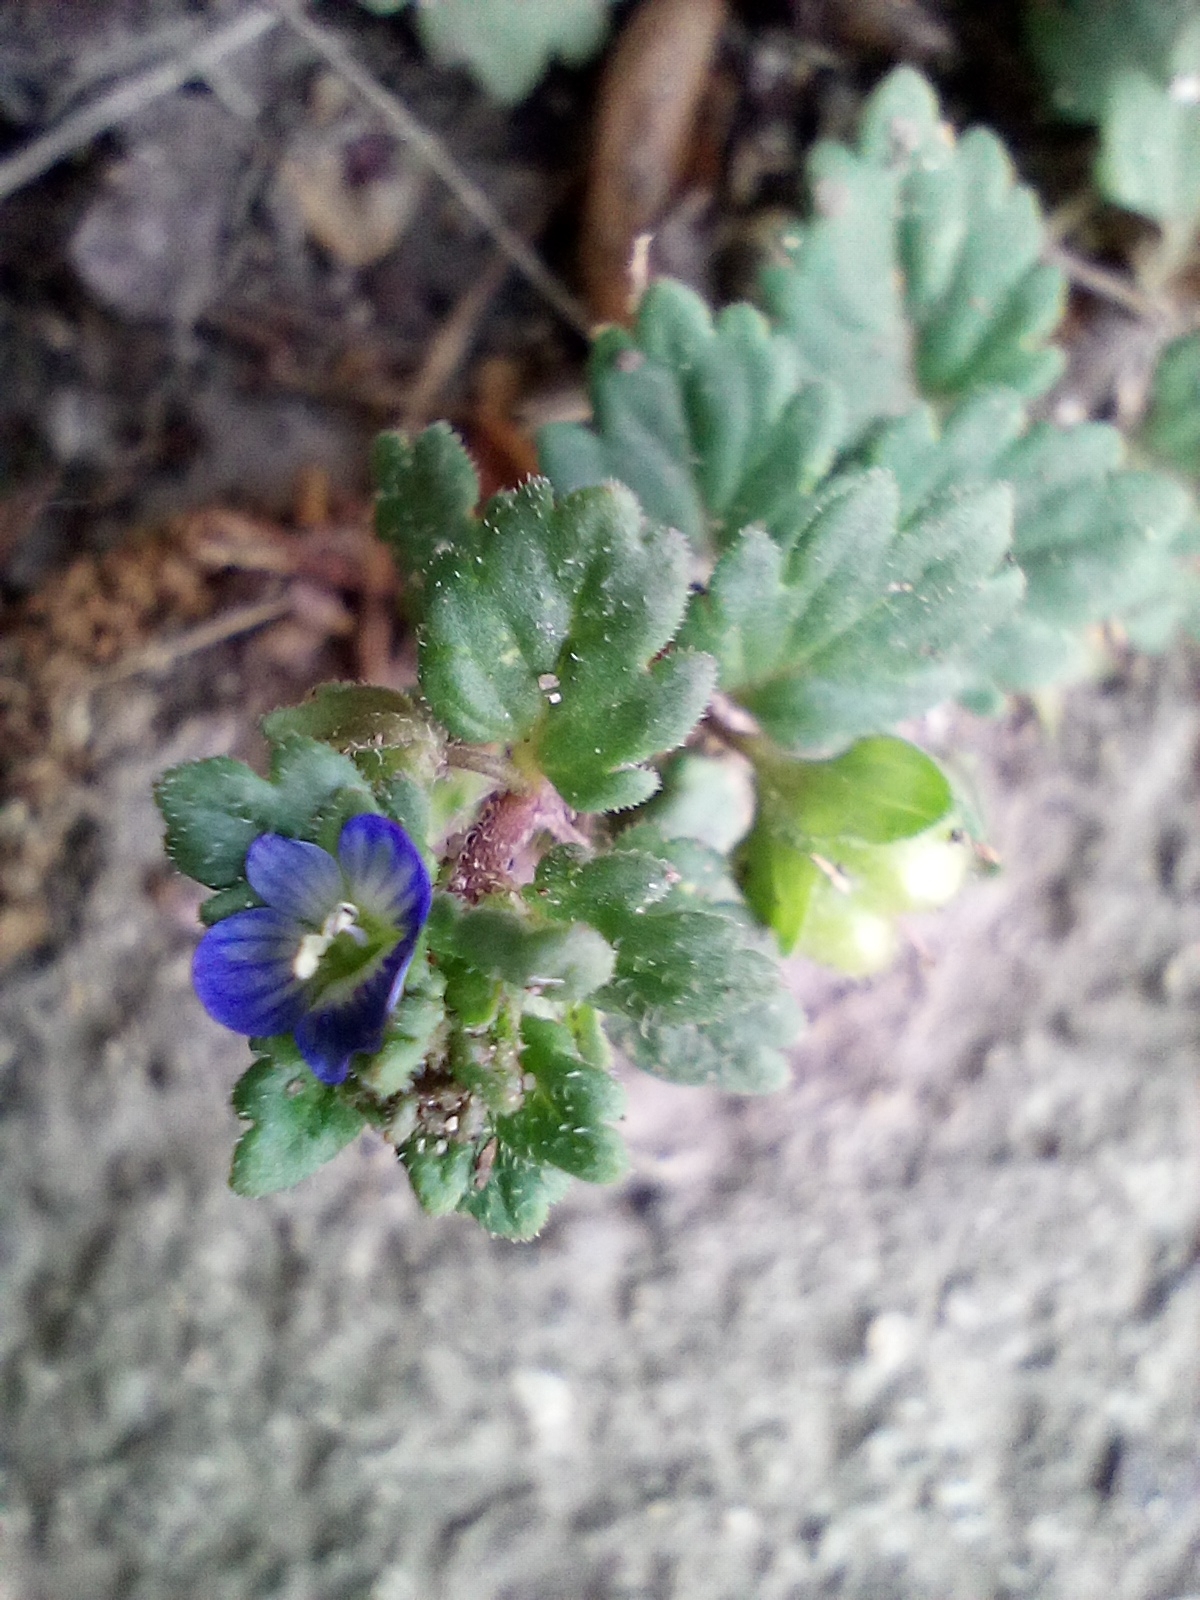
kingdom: Plantae
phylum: Tracheophyta
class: Magnoliopsida
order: Lamiales
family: Plantaginaceae
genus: Veronica
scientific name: Veronica polita
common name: Grey field-speedwell
